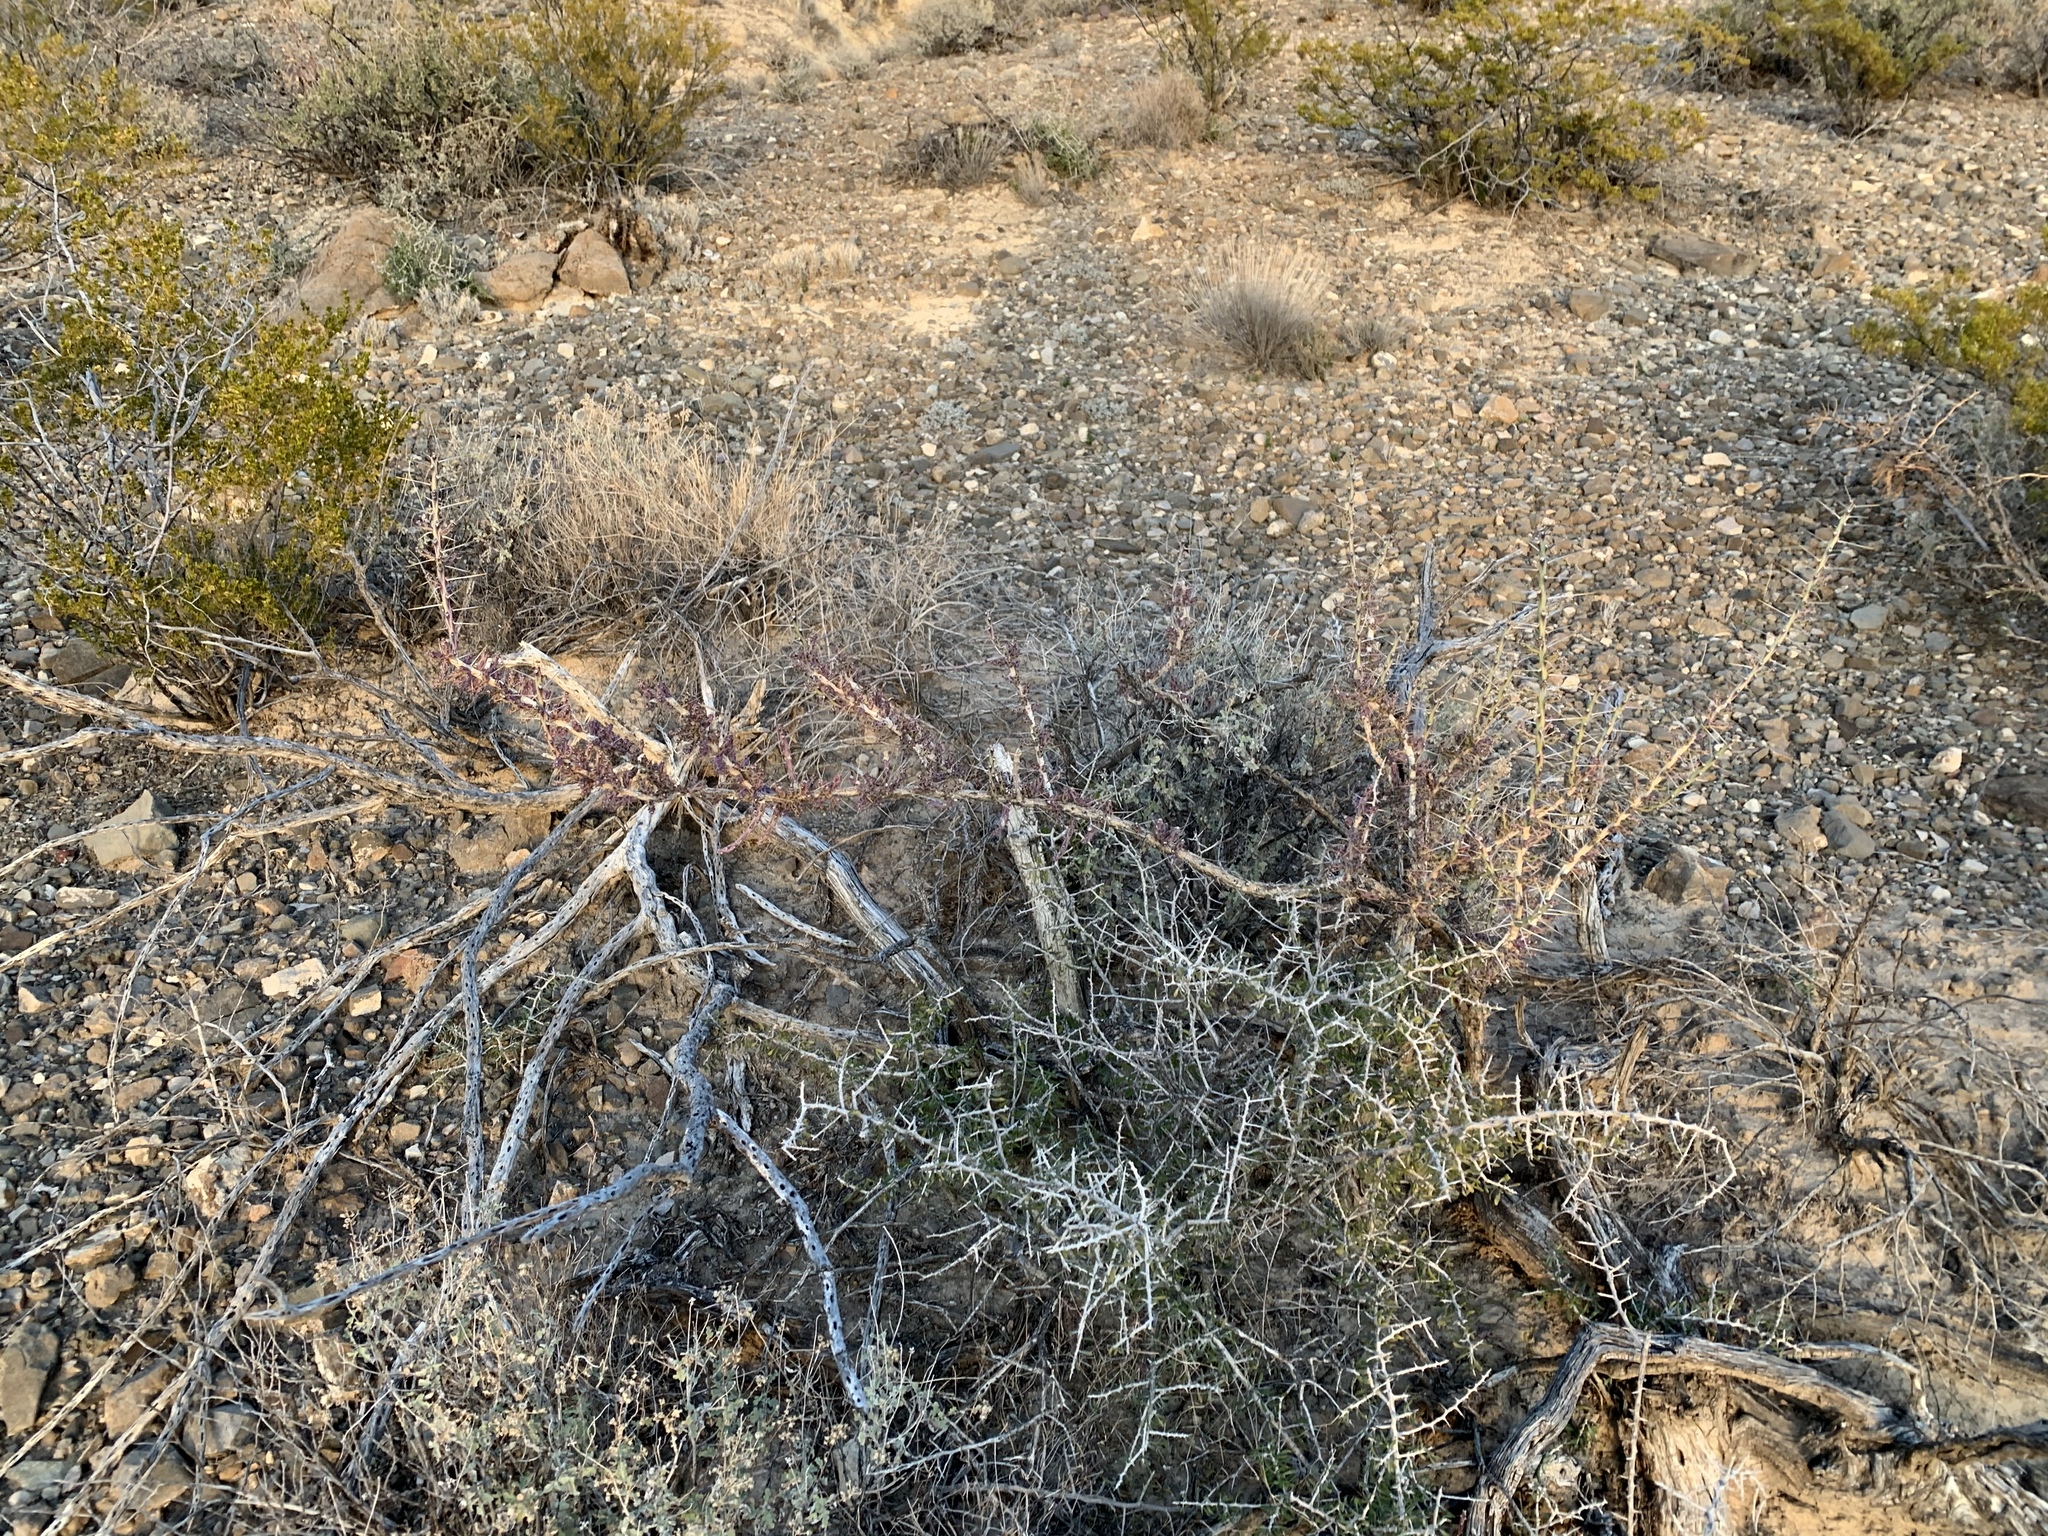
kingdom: Plantae
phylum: Tracheophyta
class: Magnoliopsida
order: Caryophyllales
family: Cactaceae
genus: Cylindropuntia
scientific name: Cylindropuntia leptocaulis
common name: Christmas cactus
